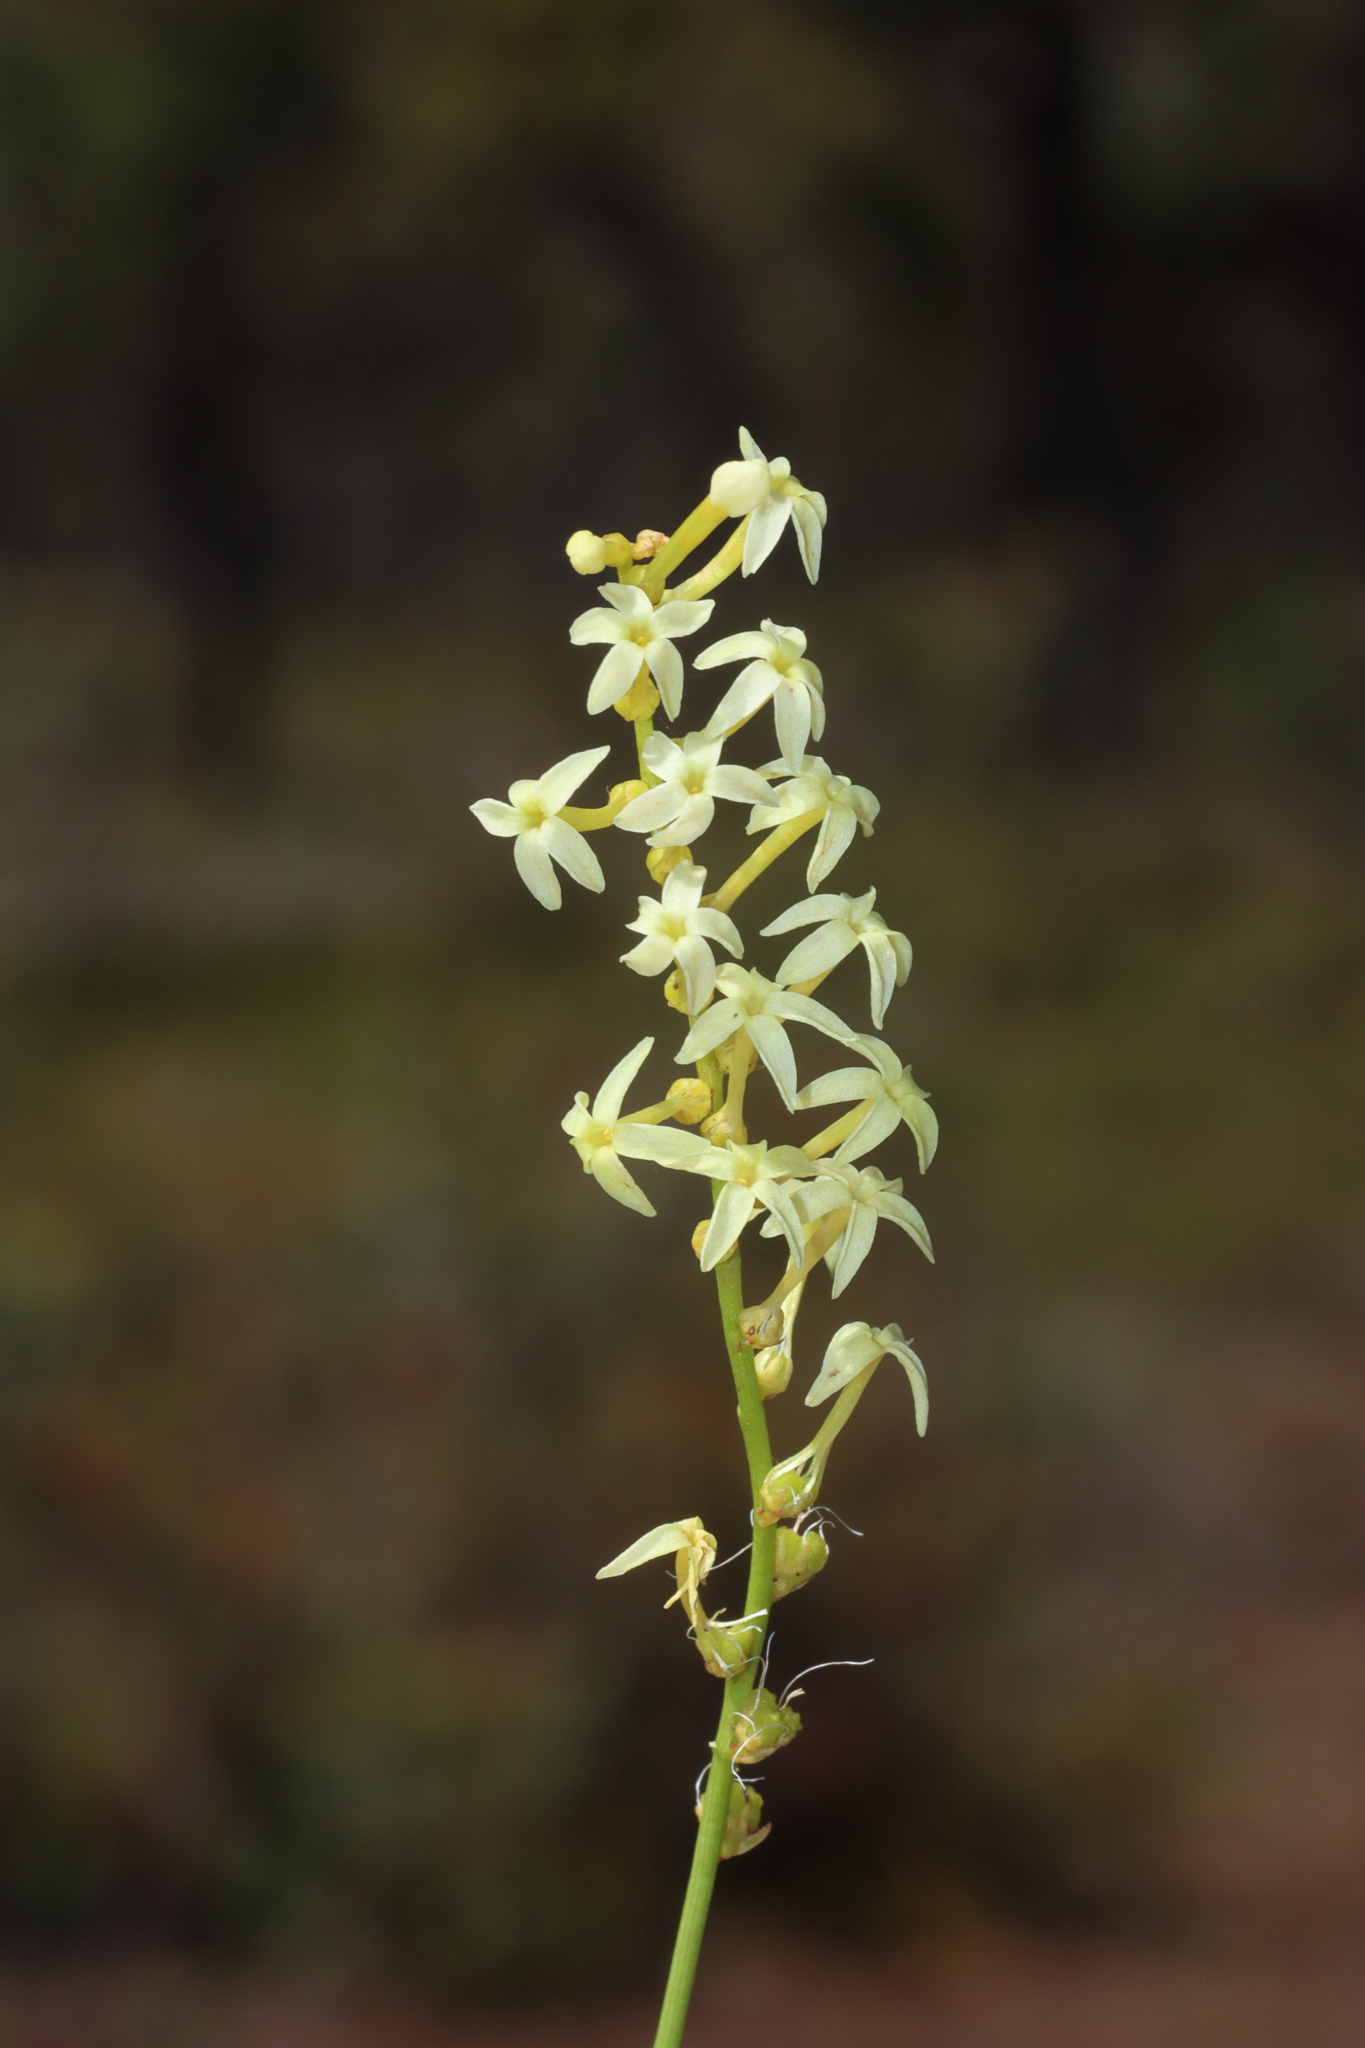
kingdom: Plantae
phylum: Tracheophyta
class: Magnoliopsida
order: Celastrales
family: Celastraceae
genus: Stackhousia
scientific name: Stackhousia monogyna
